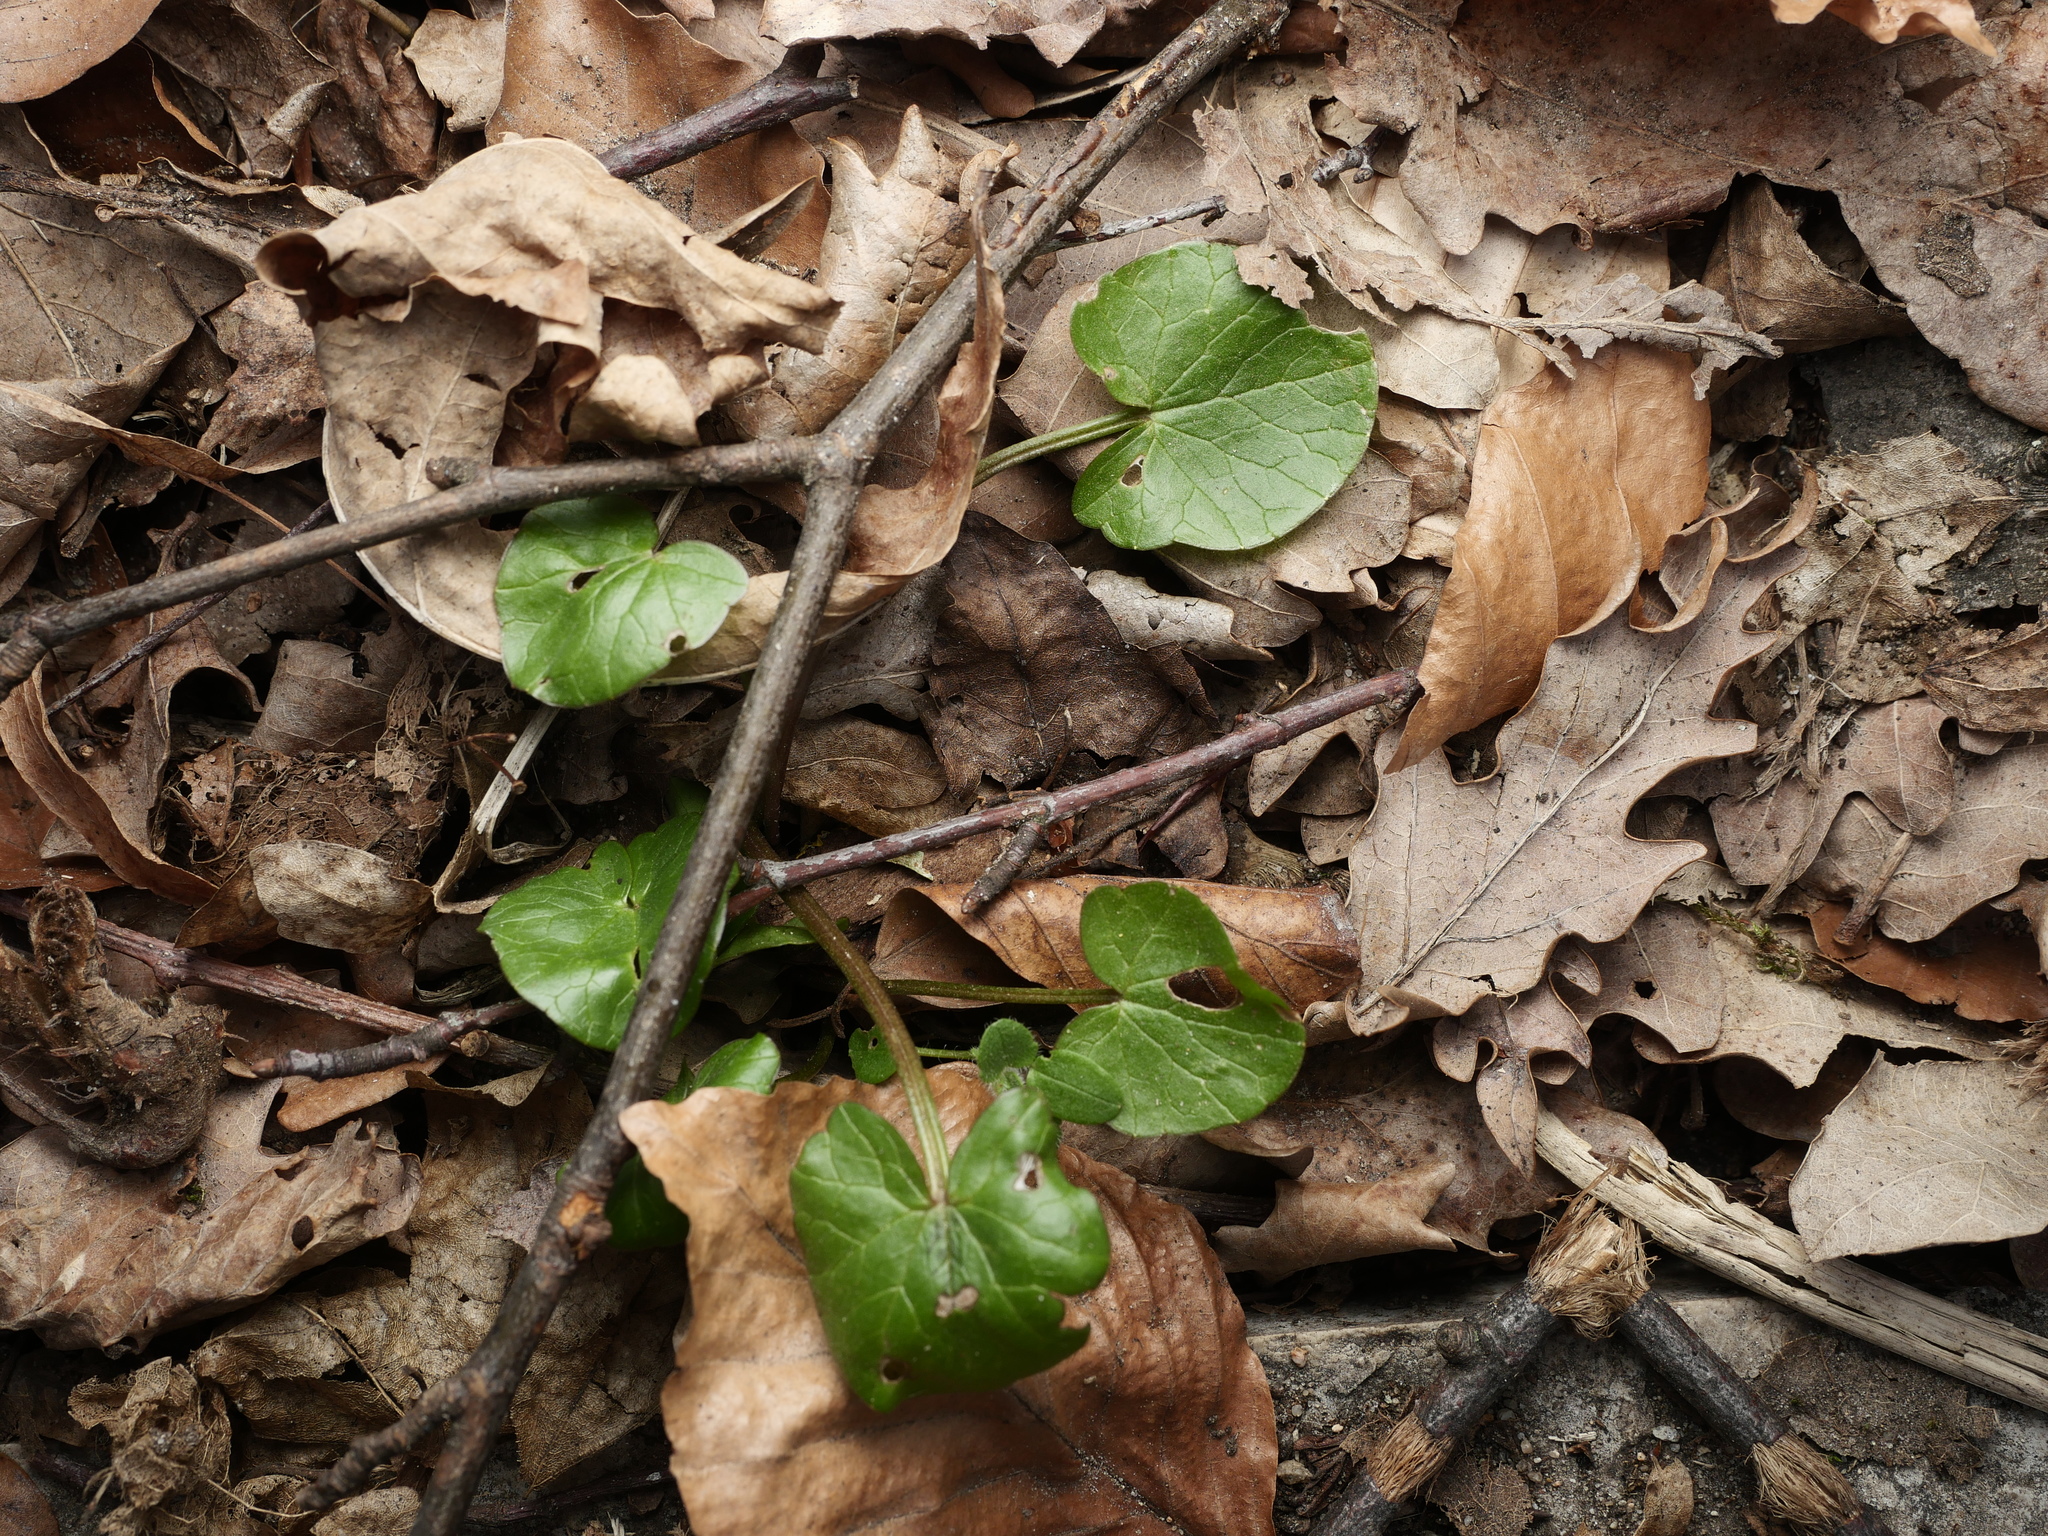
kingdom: Plantae
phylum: Tracheophyta
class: Magnoliopsida
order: Ranunculales
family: Ranunculaceae
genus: Ficaria
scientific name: Ficaria verna
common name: Lesser celandine
